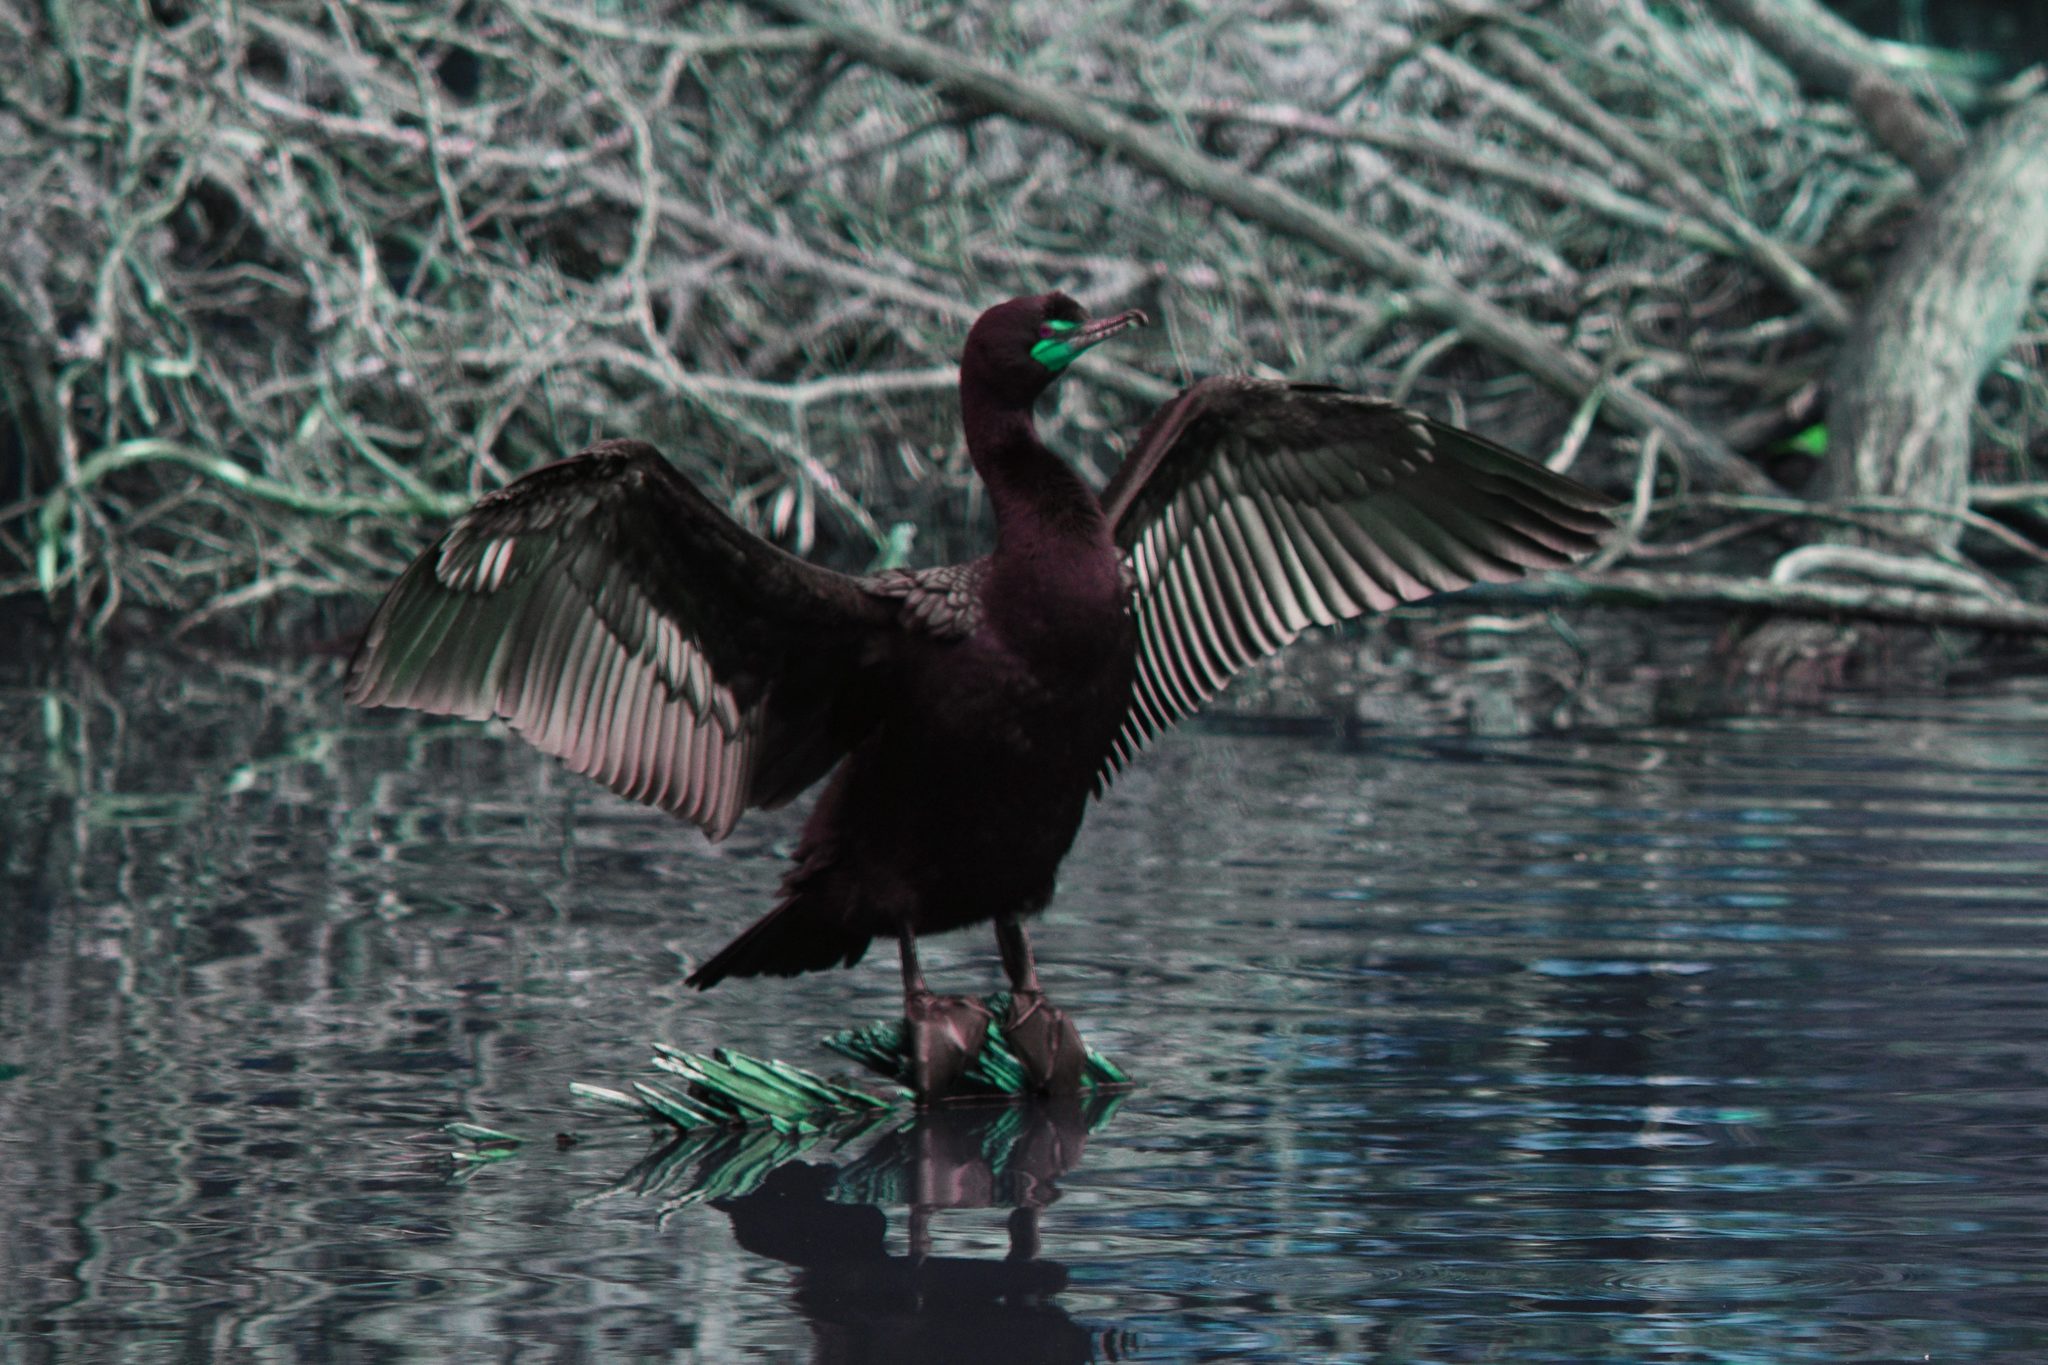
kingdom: Animalia
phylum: Chordata
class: Aves
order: Suliformes
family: Phalacrocoracidae
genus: Phalacrocorax
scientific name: Phalacrocorax auritus
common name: Double-crested cormorant
